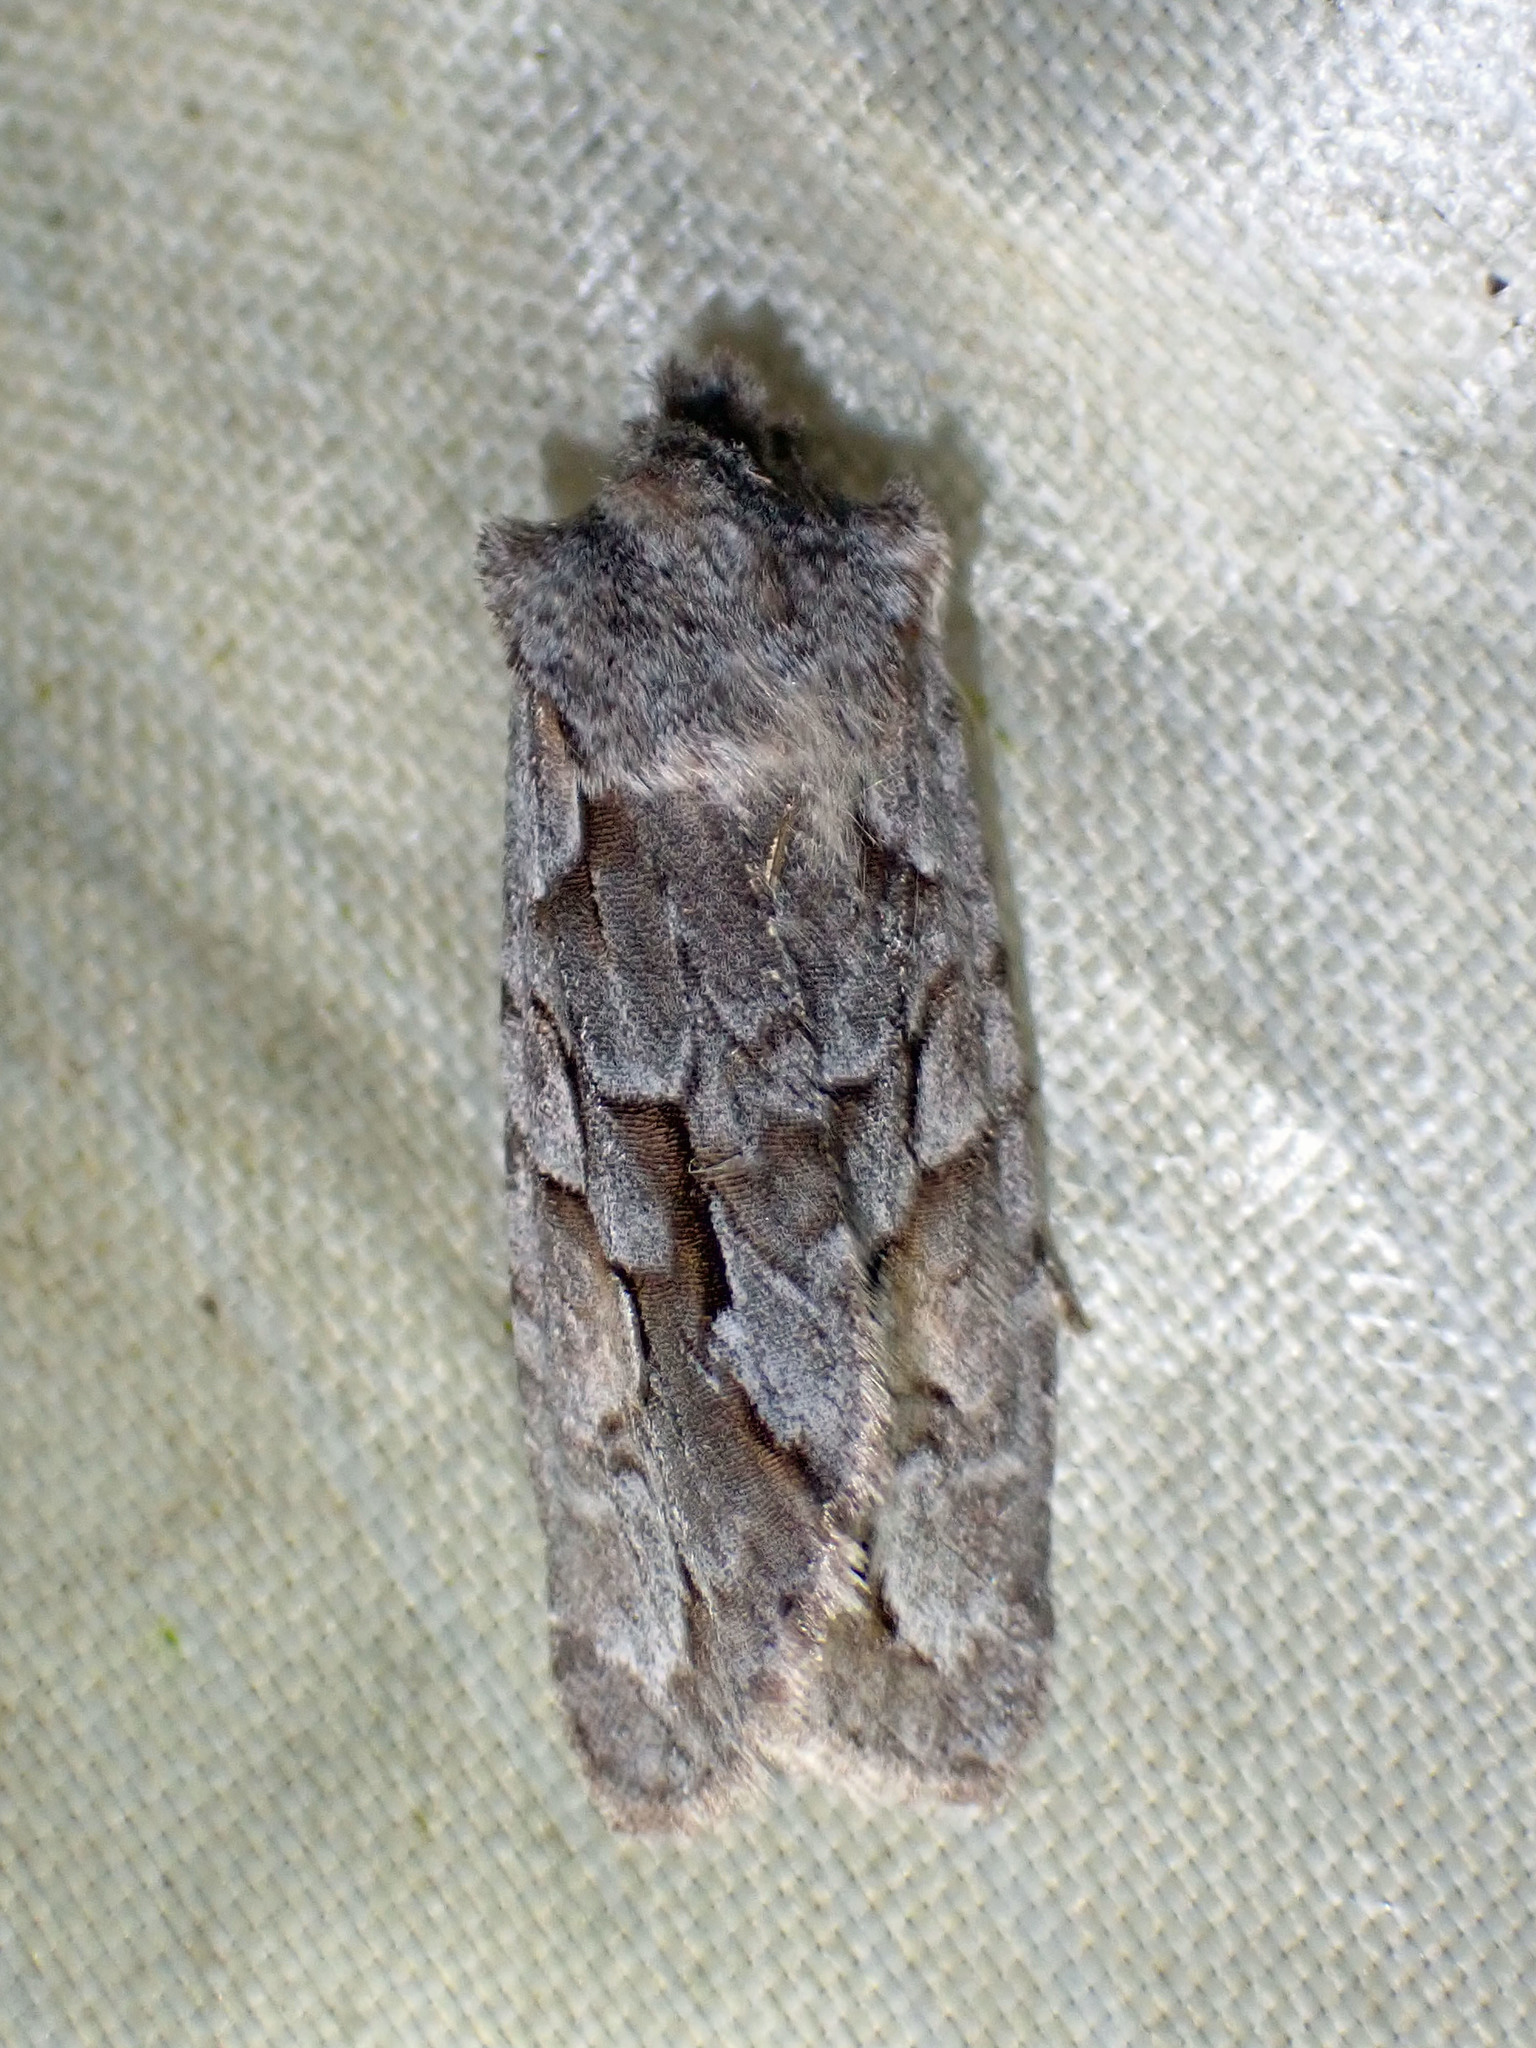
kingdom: Animalia
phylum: Arthropoda
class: Insecta
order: Lepidoptera
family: Noctuidae
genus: Lithophane
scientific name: Lithophane thaxteri
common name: Nonconformist
